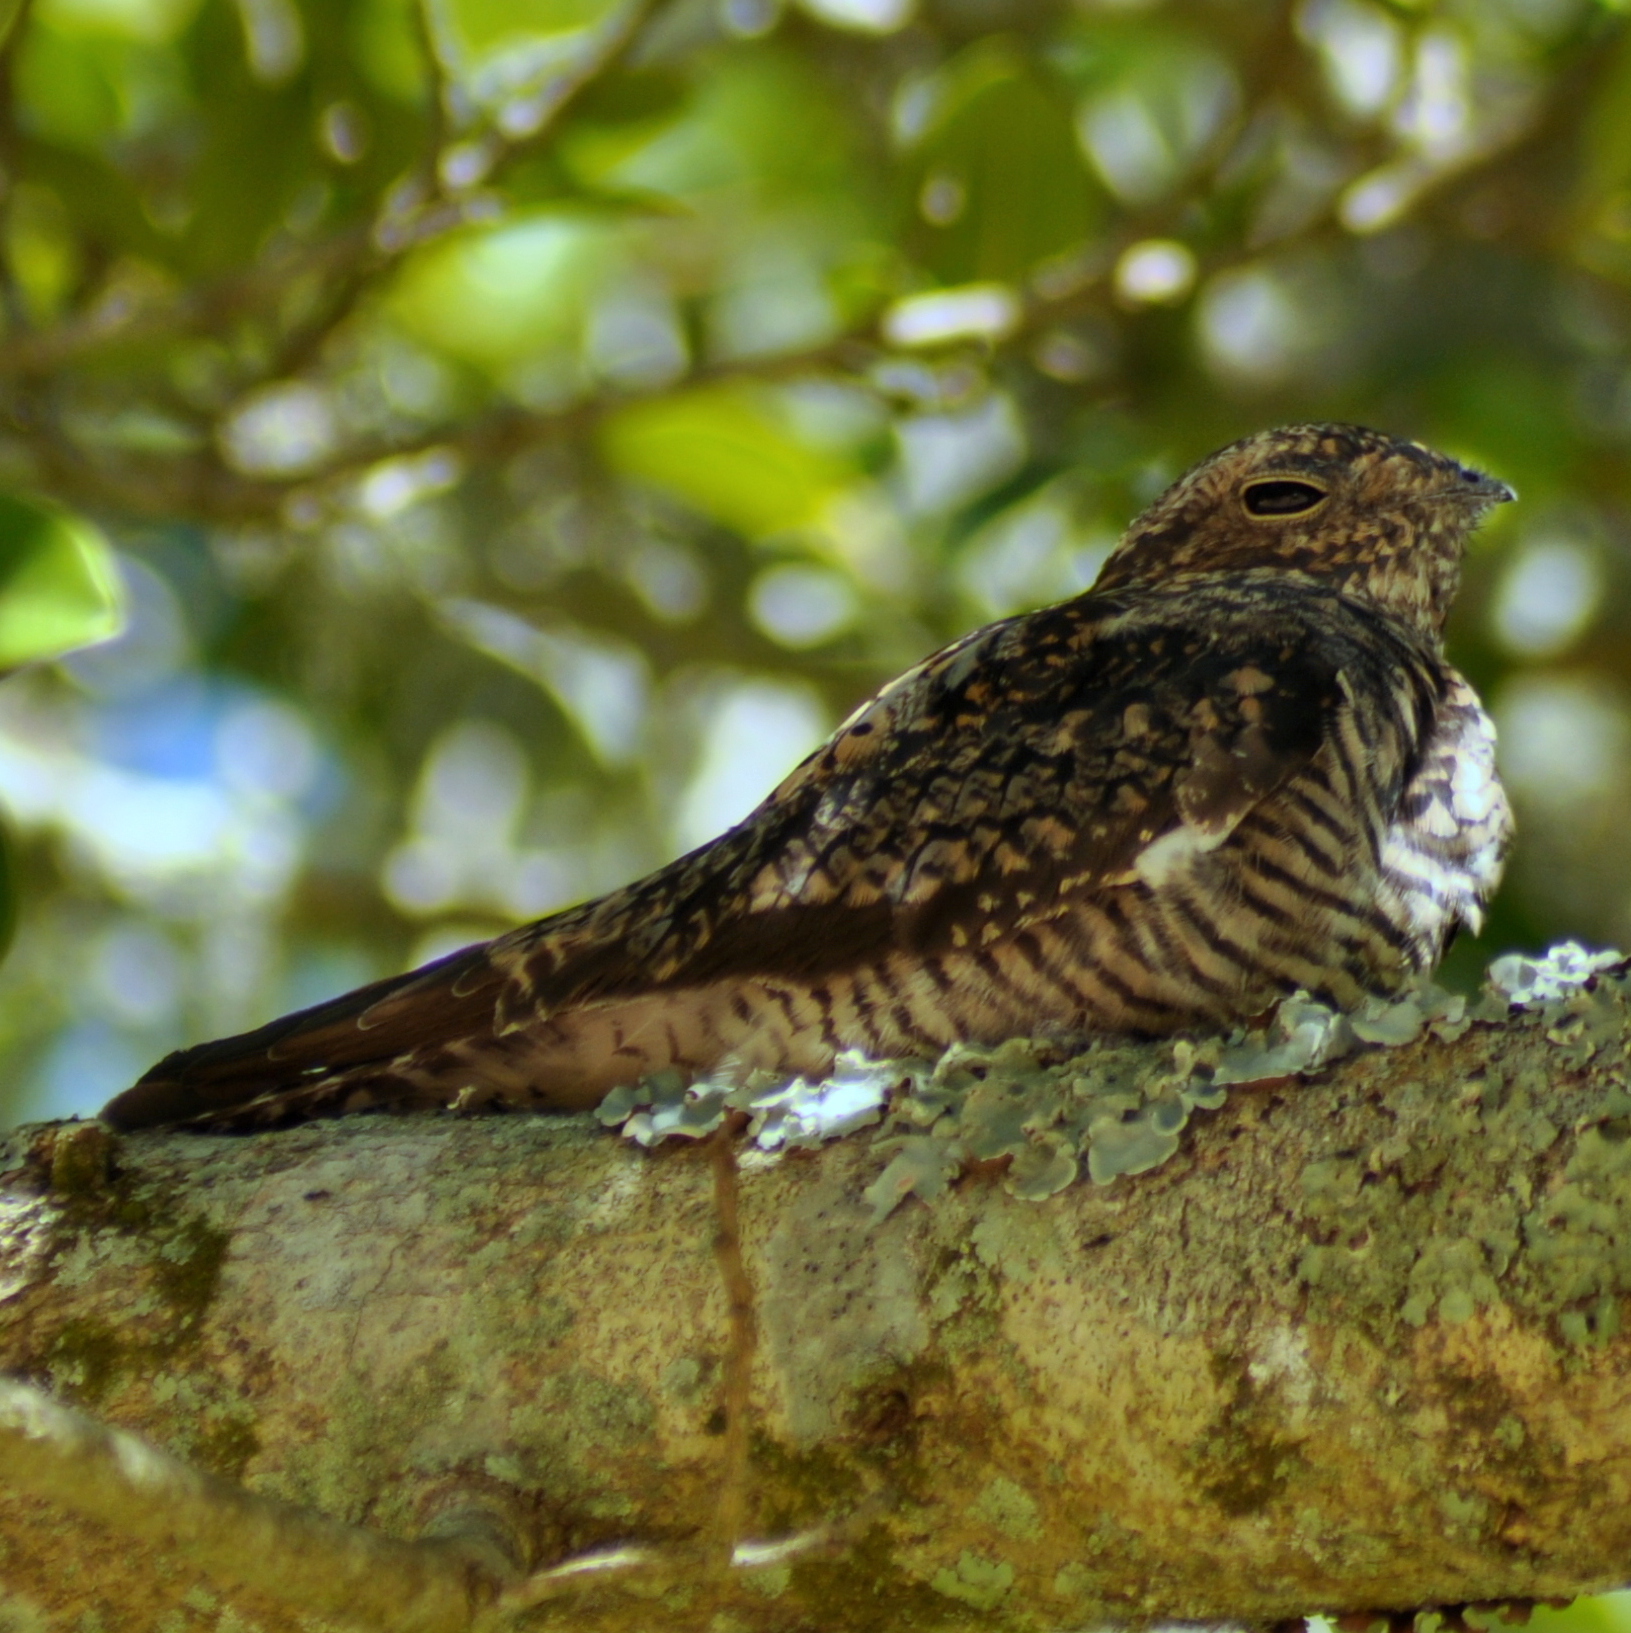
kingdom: Animalia
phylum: Chordata
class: Aves
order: Caprimulgiformes
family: Caprimulgidae
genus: Chordeiles
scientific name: Chordeiles minor
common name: Common nighthawk
